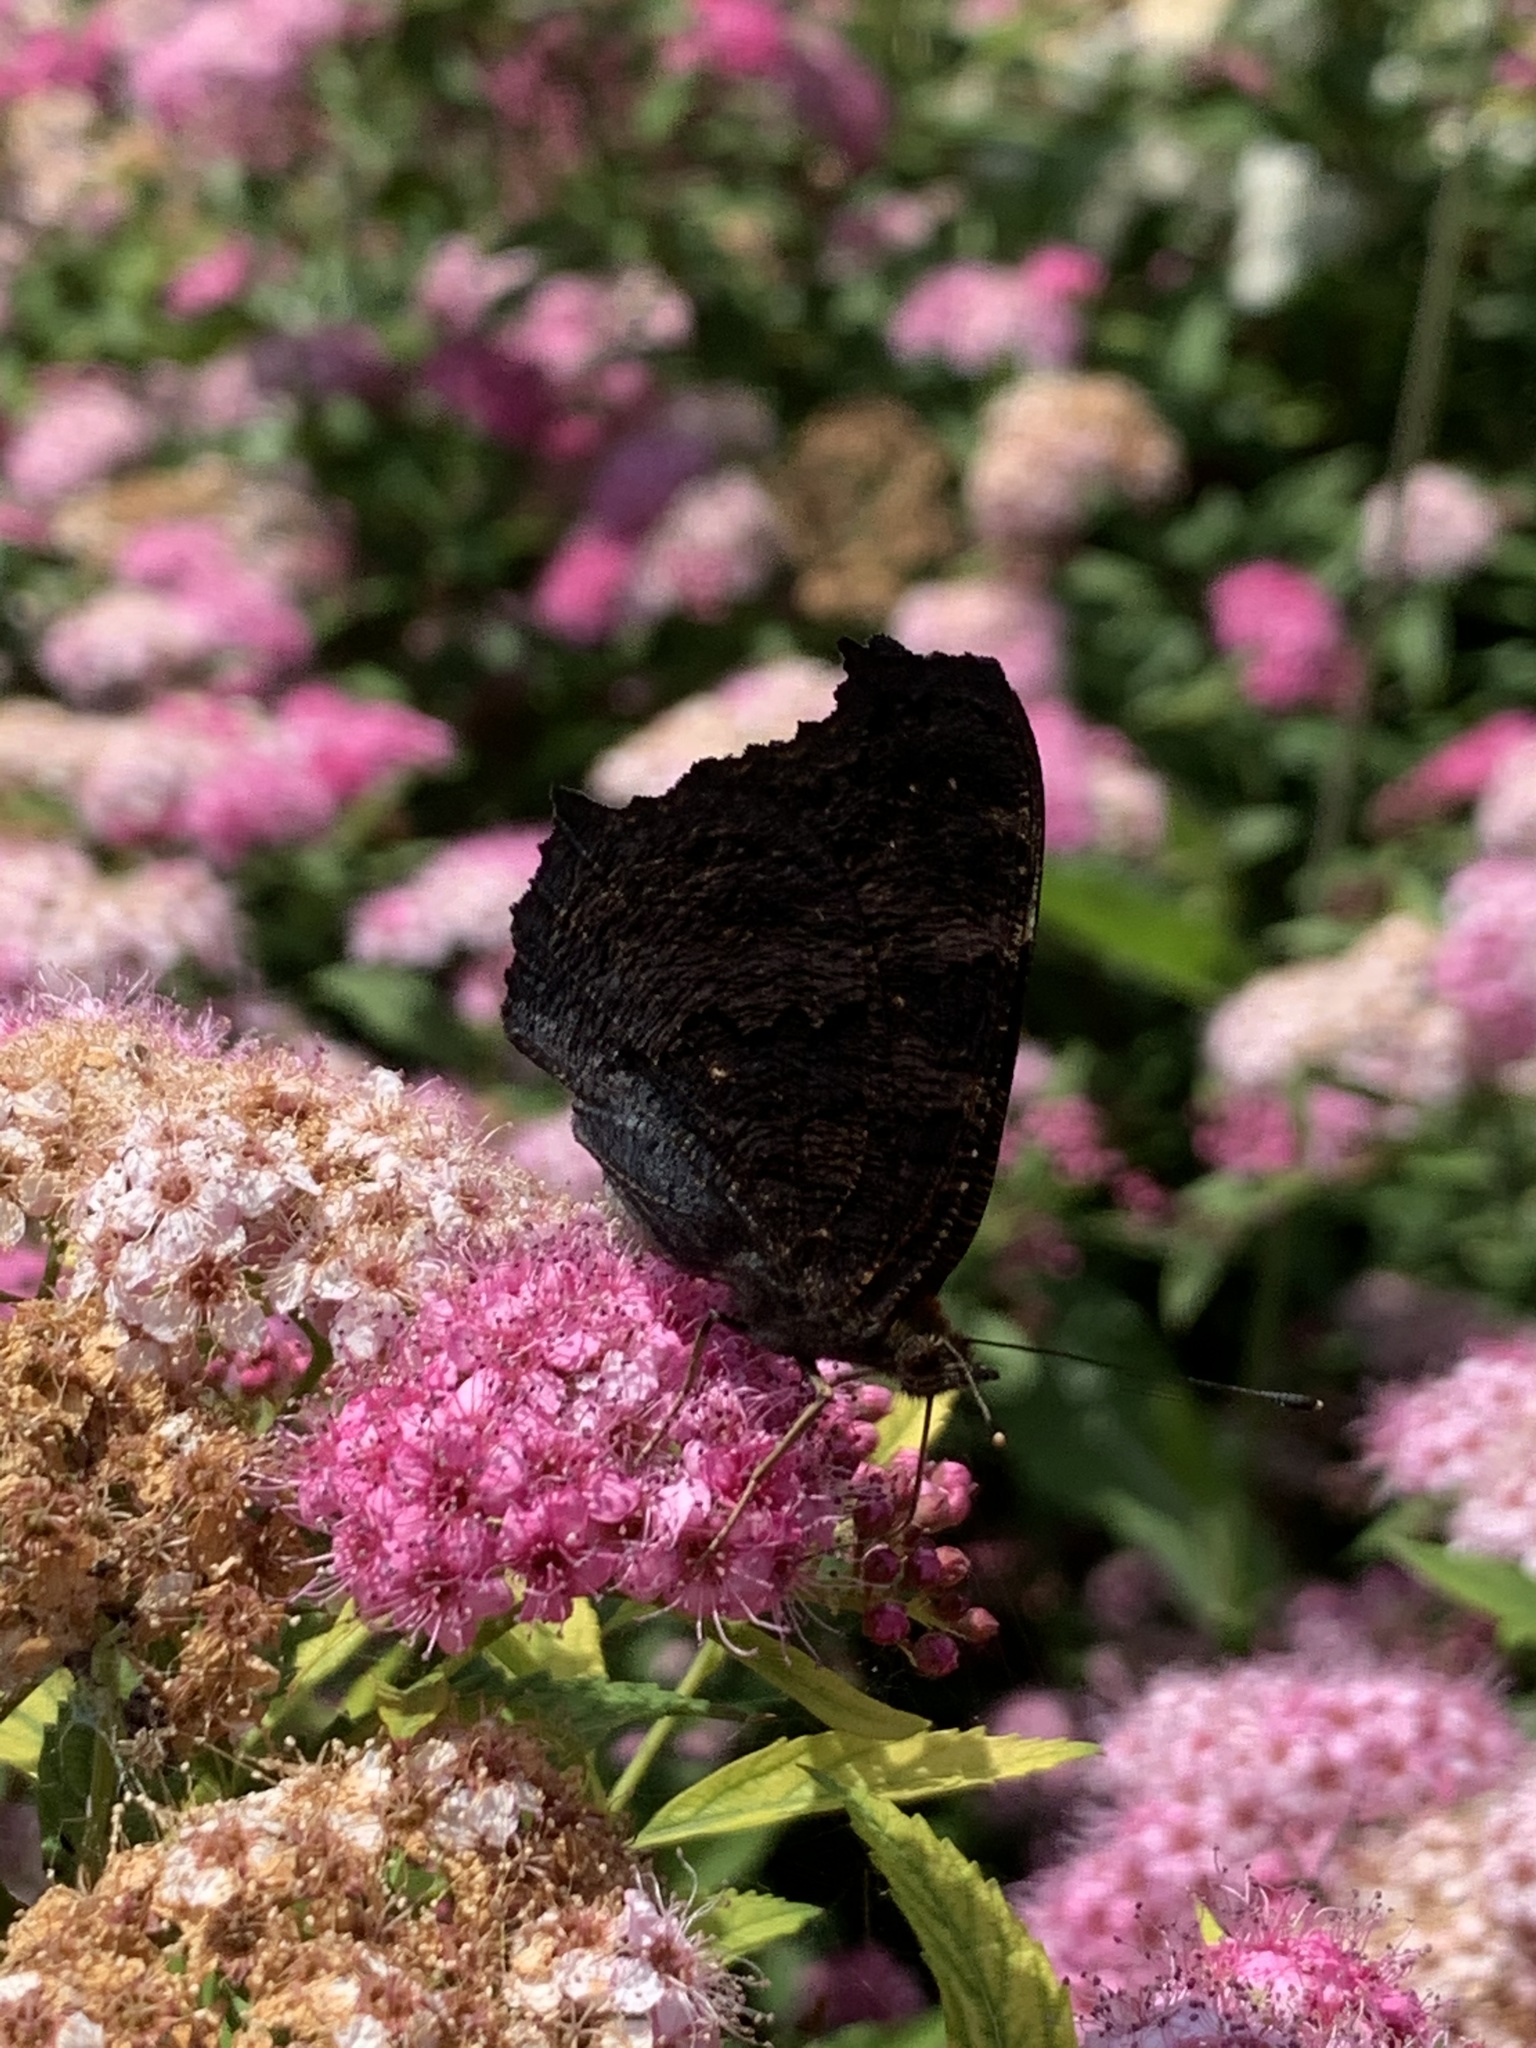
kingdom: Animalia
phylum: Arthropoda
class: Insecta
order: Lepidoptera
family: Nymphalidae
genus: Aglais
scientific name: Aglais io
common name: Peacock
